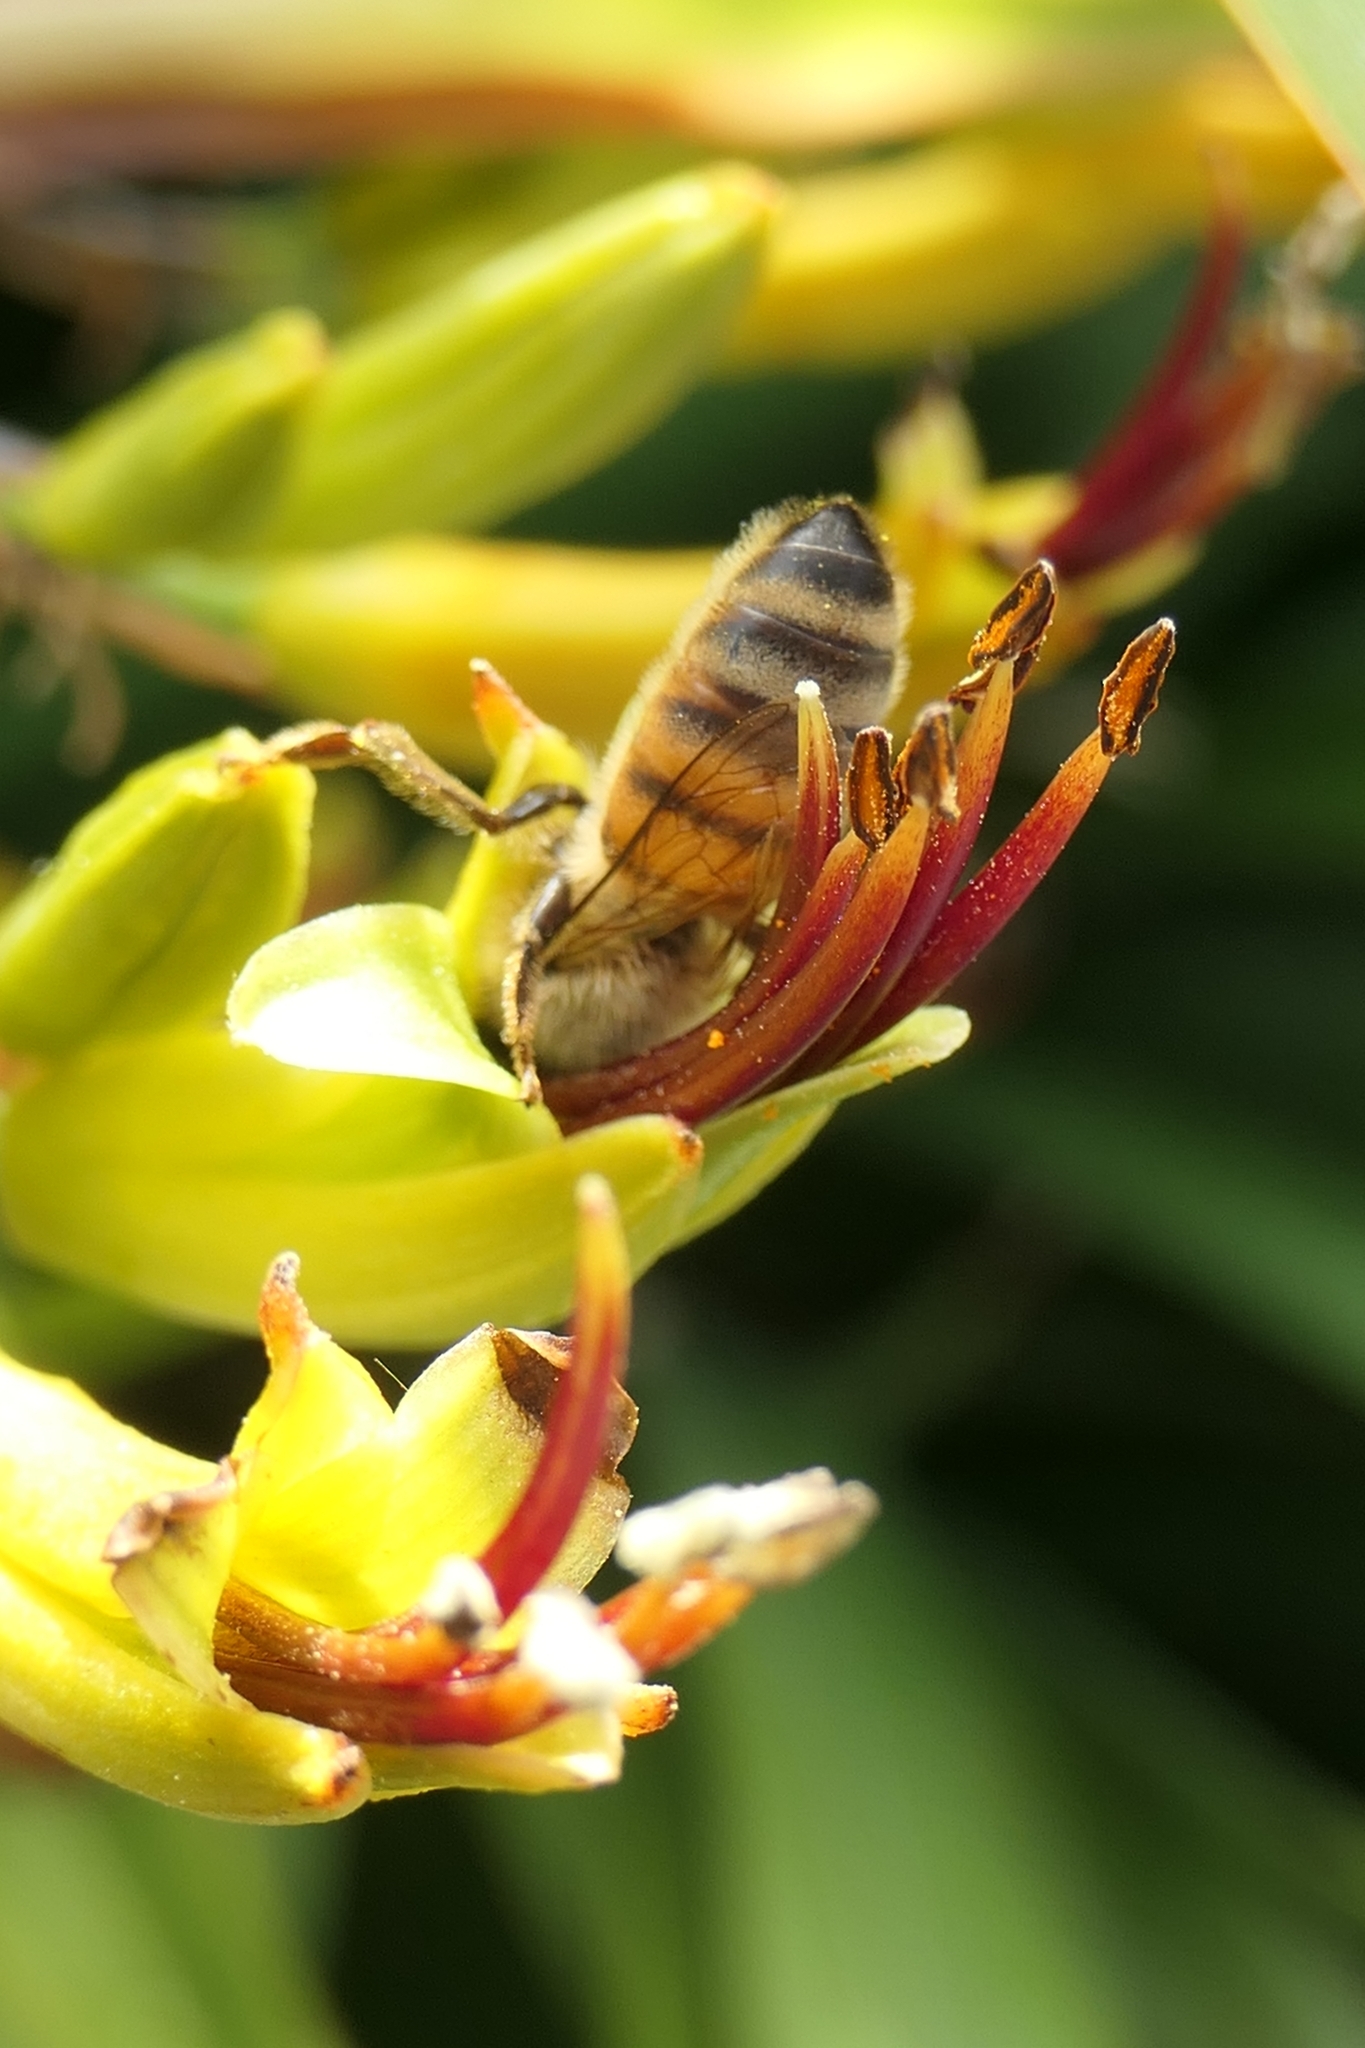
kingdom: Animalia
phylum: Arthropoda
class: Insecta
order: Hymenoptera
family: Apidae
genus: Apis
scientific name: Apis mellifera
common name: Honey bee
